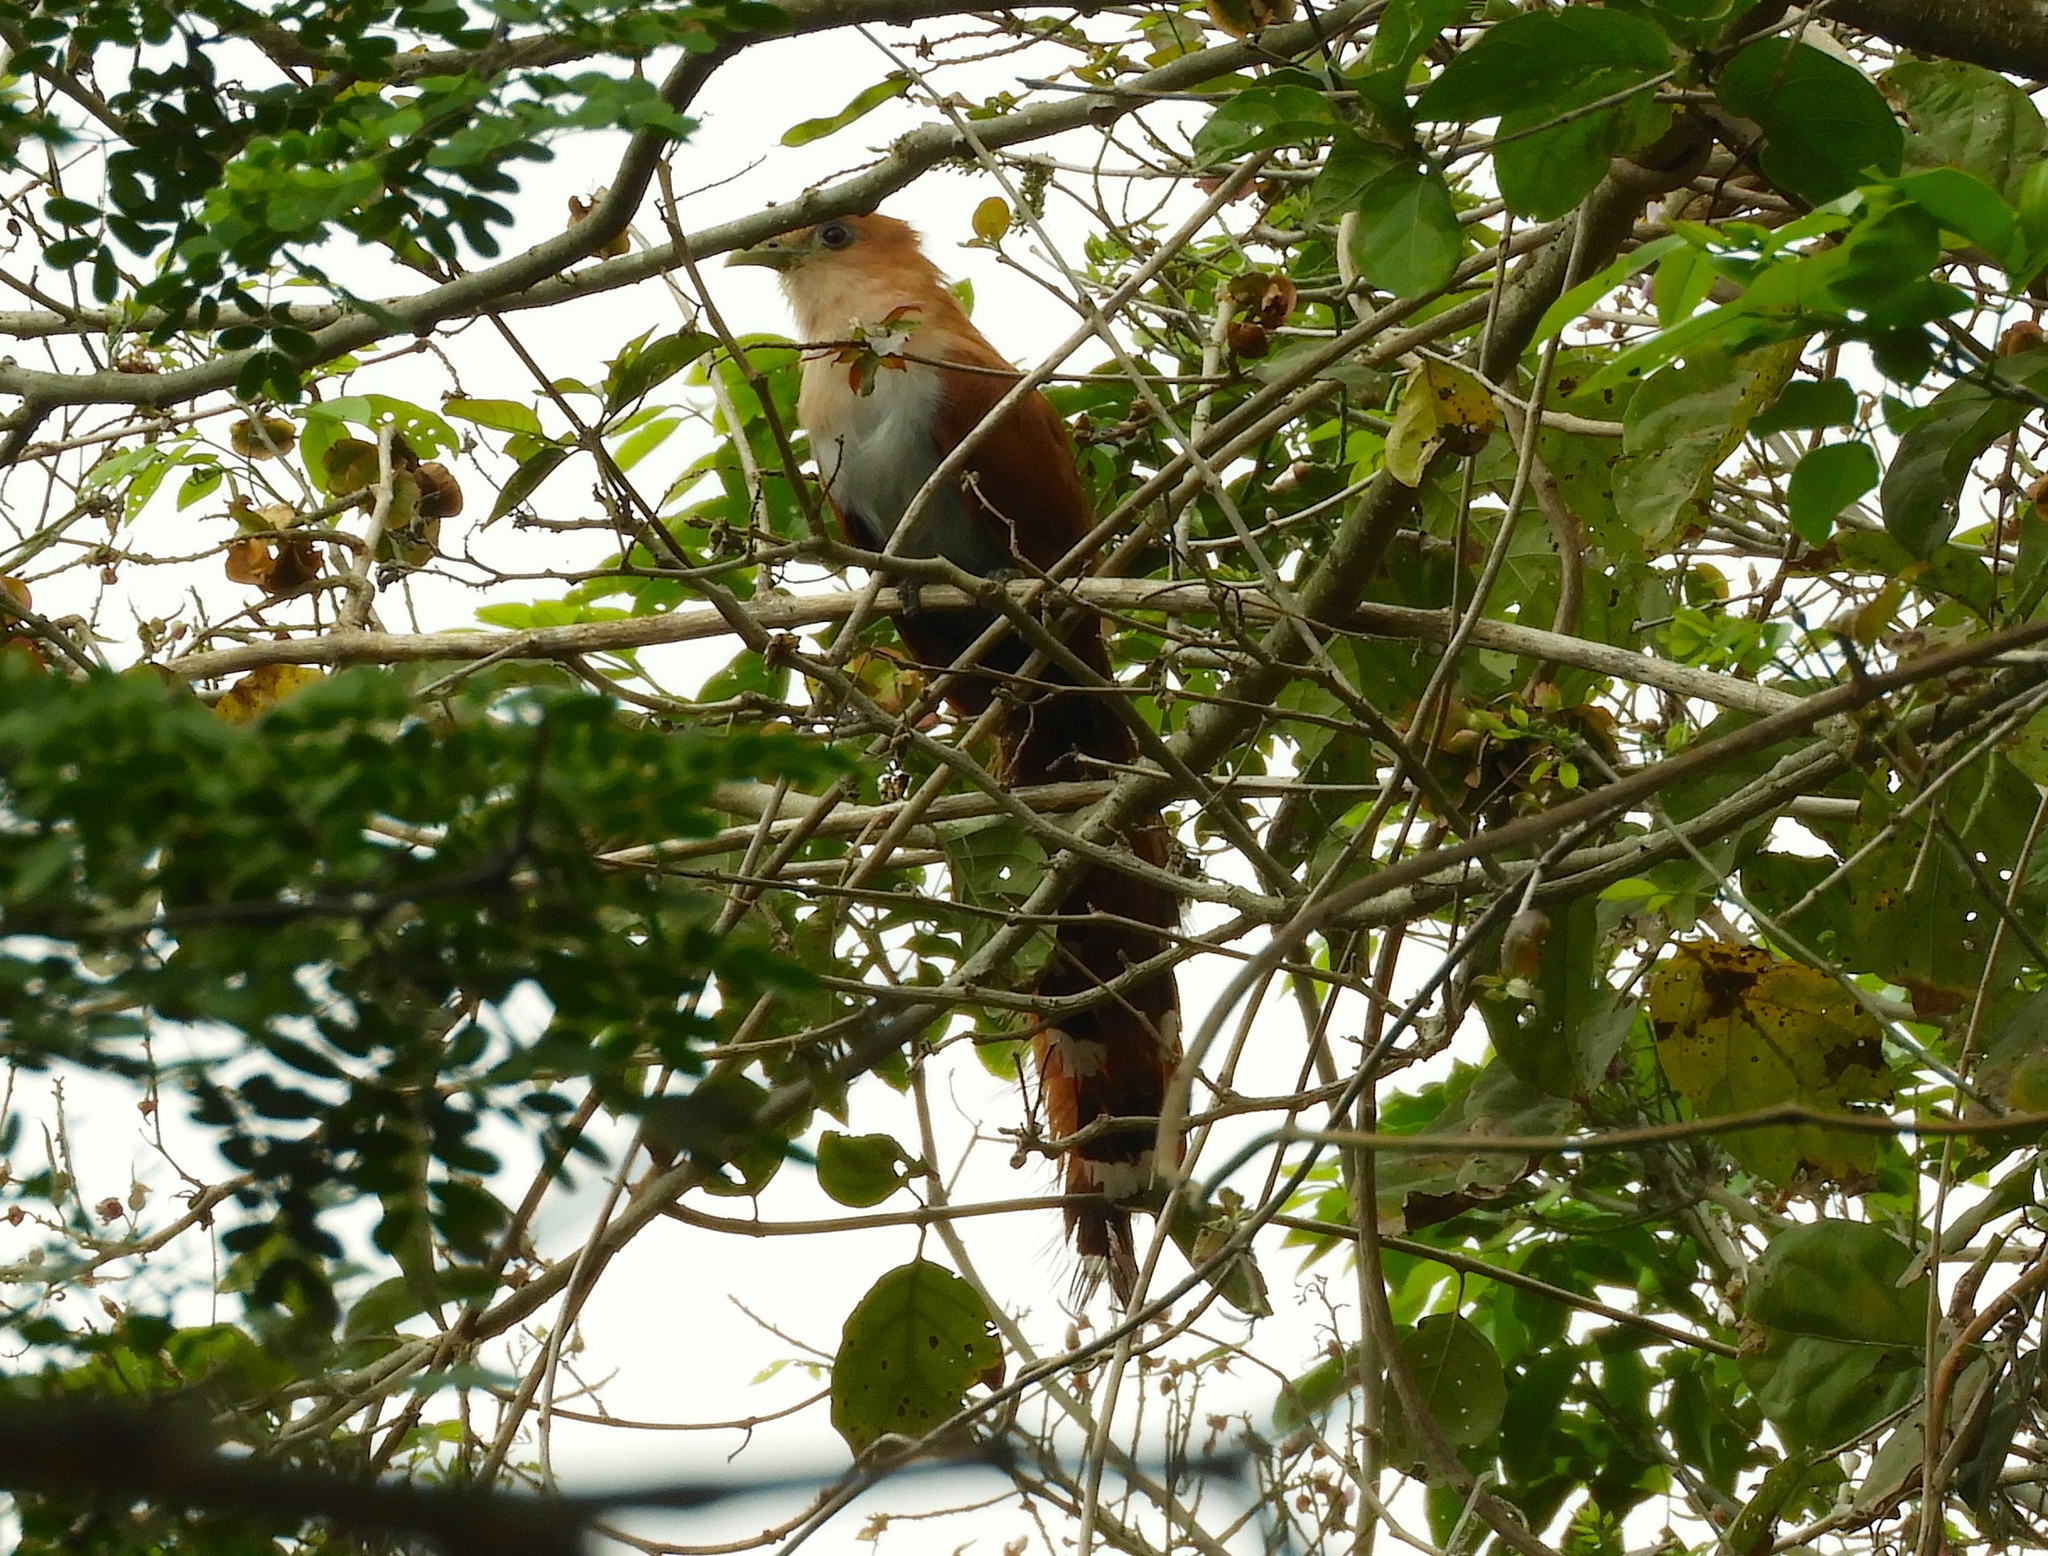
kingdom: Animalia
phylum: Chordata
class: Aves
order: Cuculiformes
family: Cuculidae
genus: Piaya
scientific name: Piaya cayana
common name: Squirrel cuckoo
